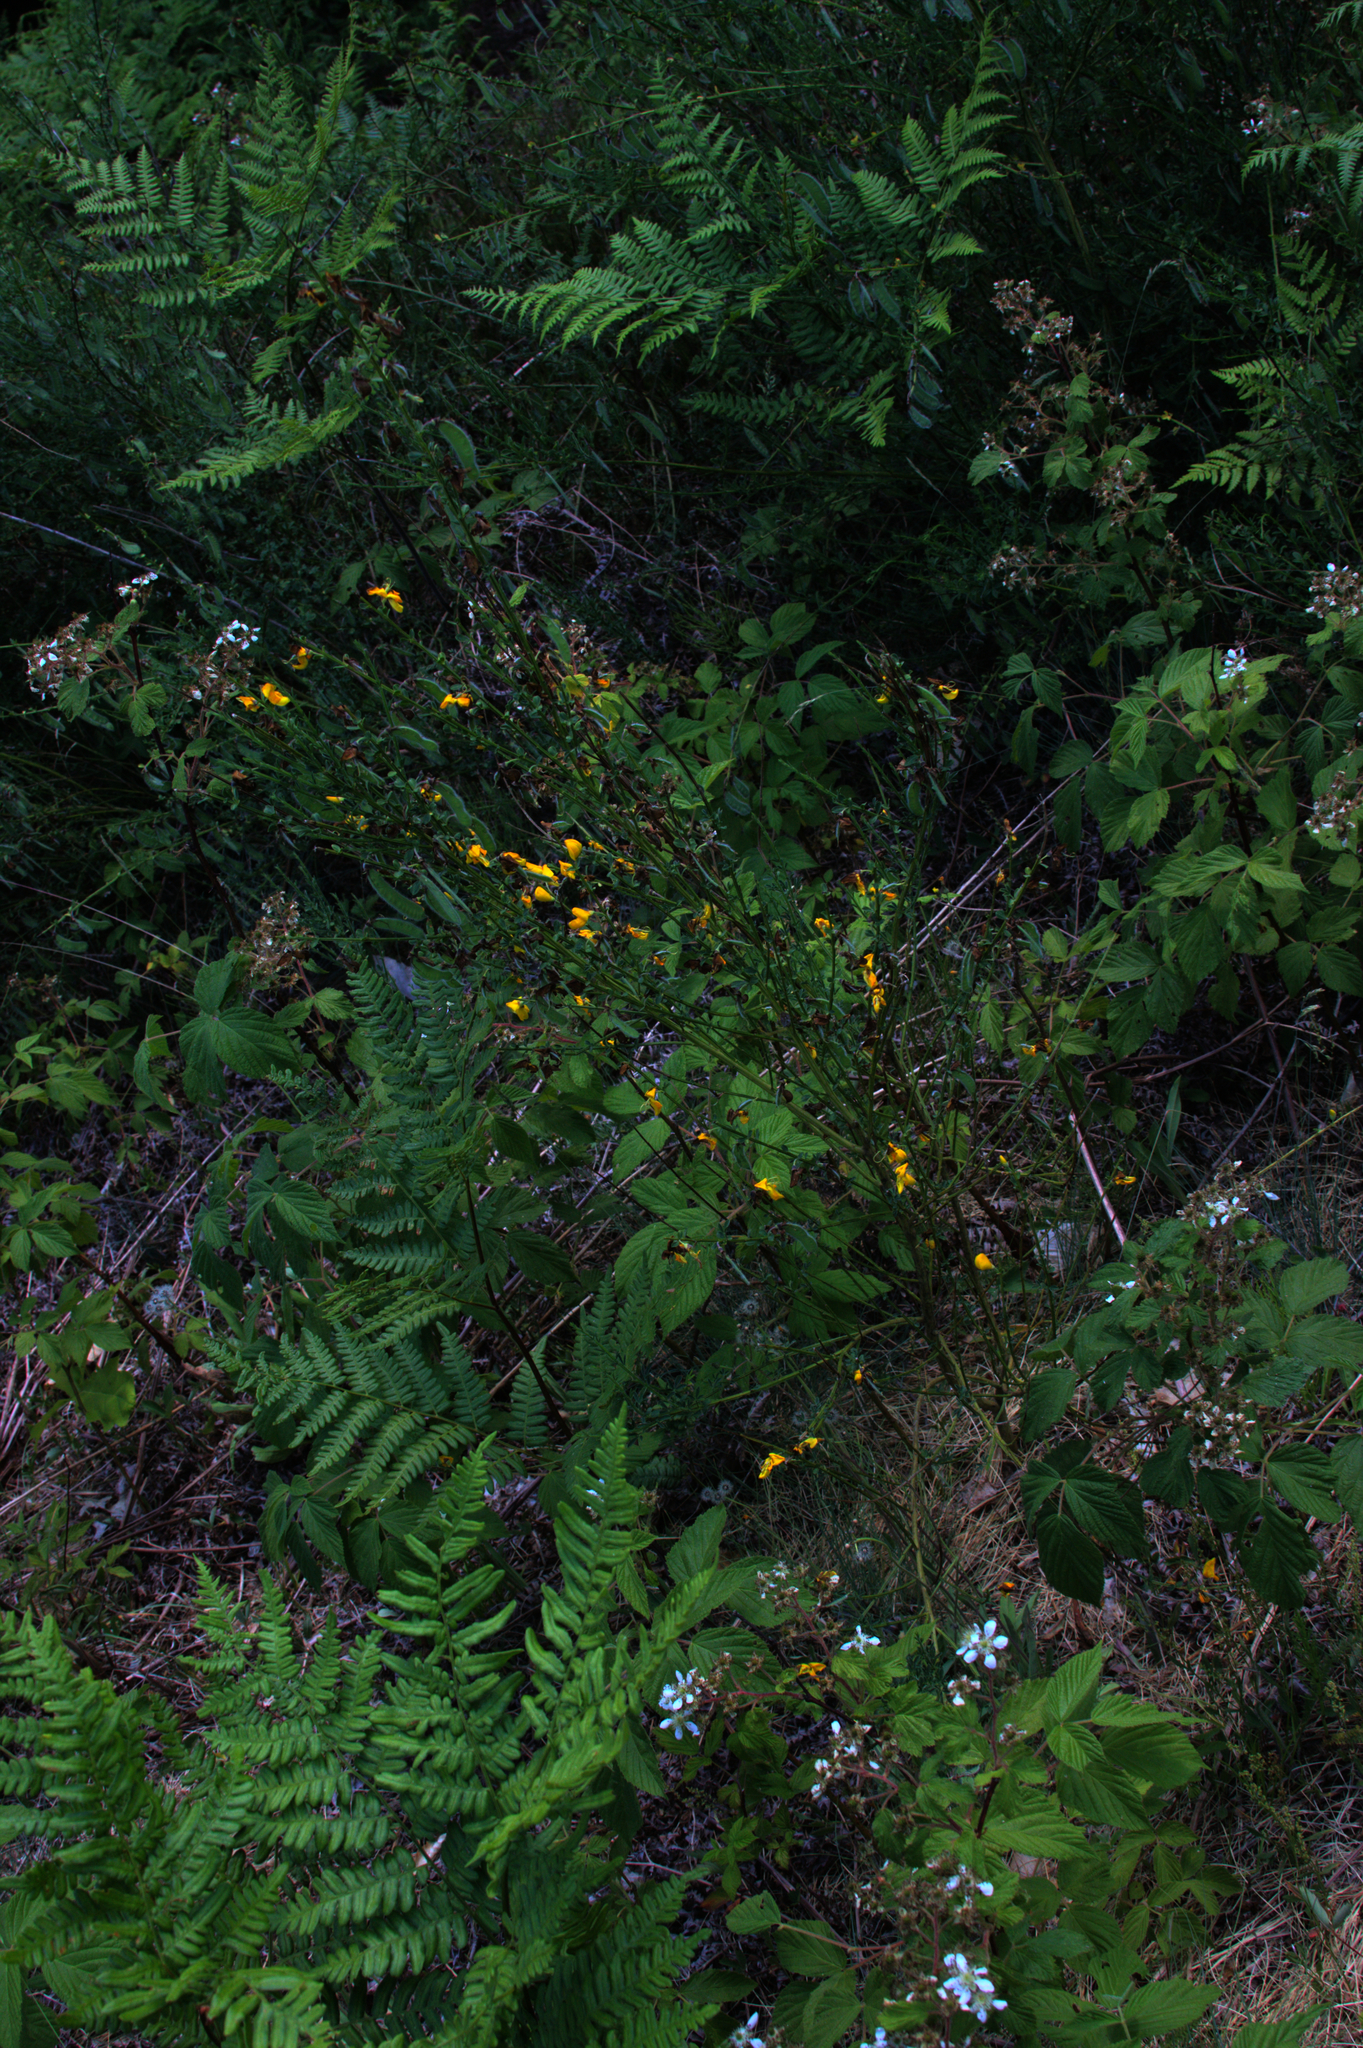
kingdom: Plantae
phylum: Tracheophyta
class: Magnoliopsida
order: Fabales
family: Fabaceae
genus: Cytisus
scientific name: Cytisus scoparius
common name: Scotch broom
